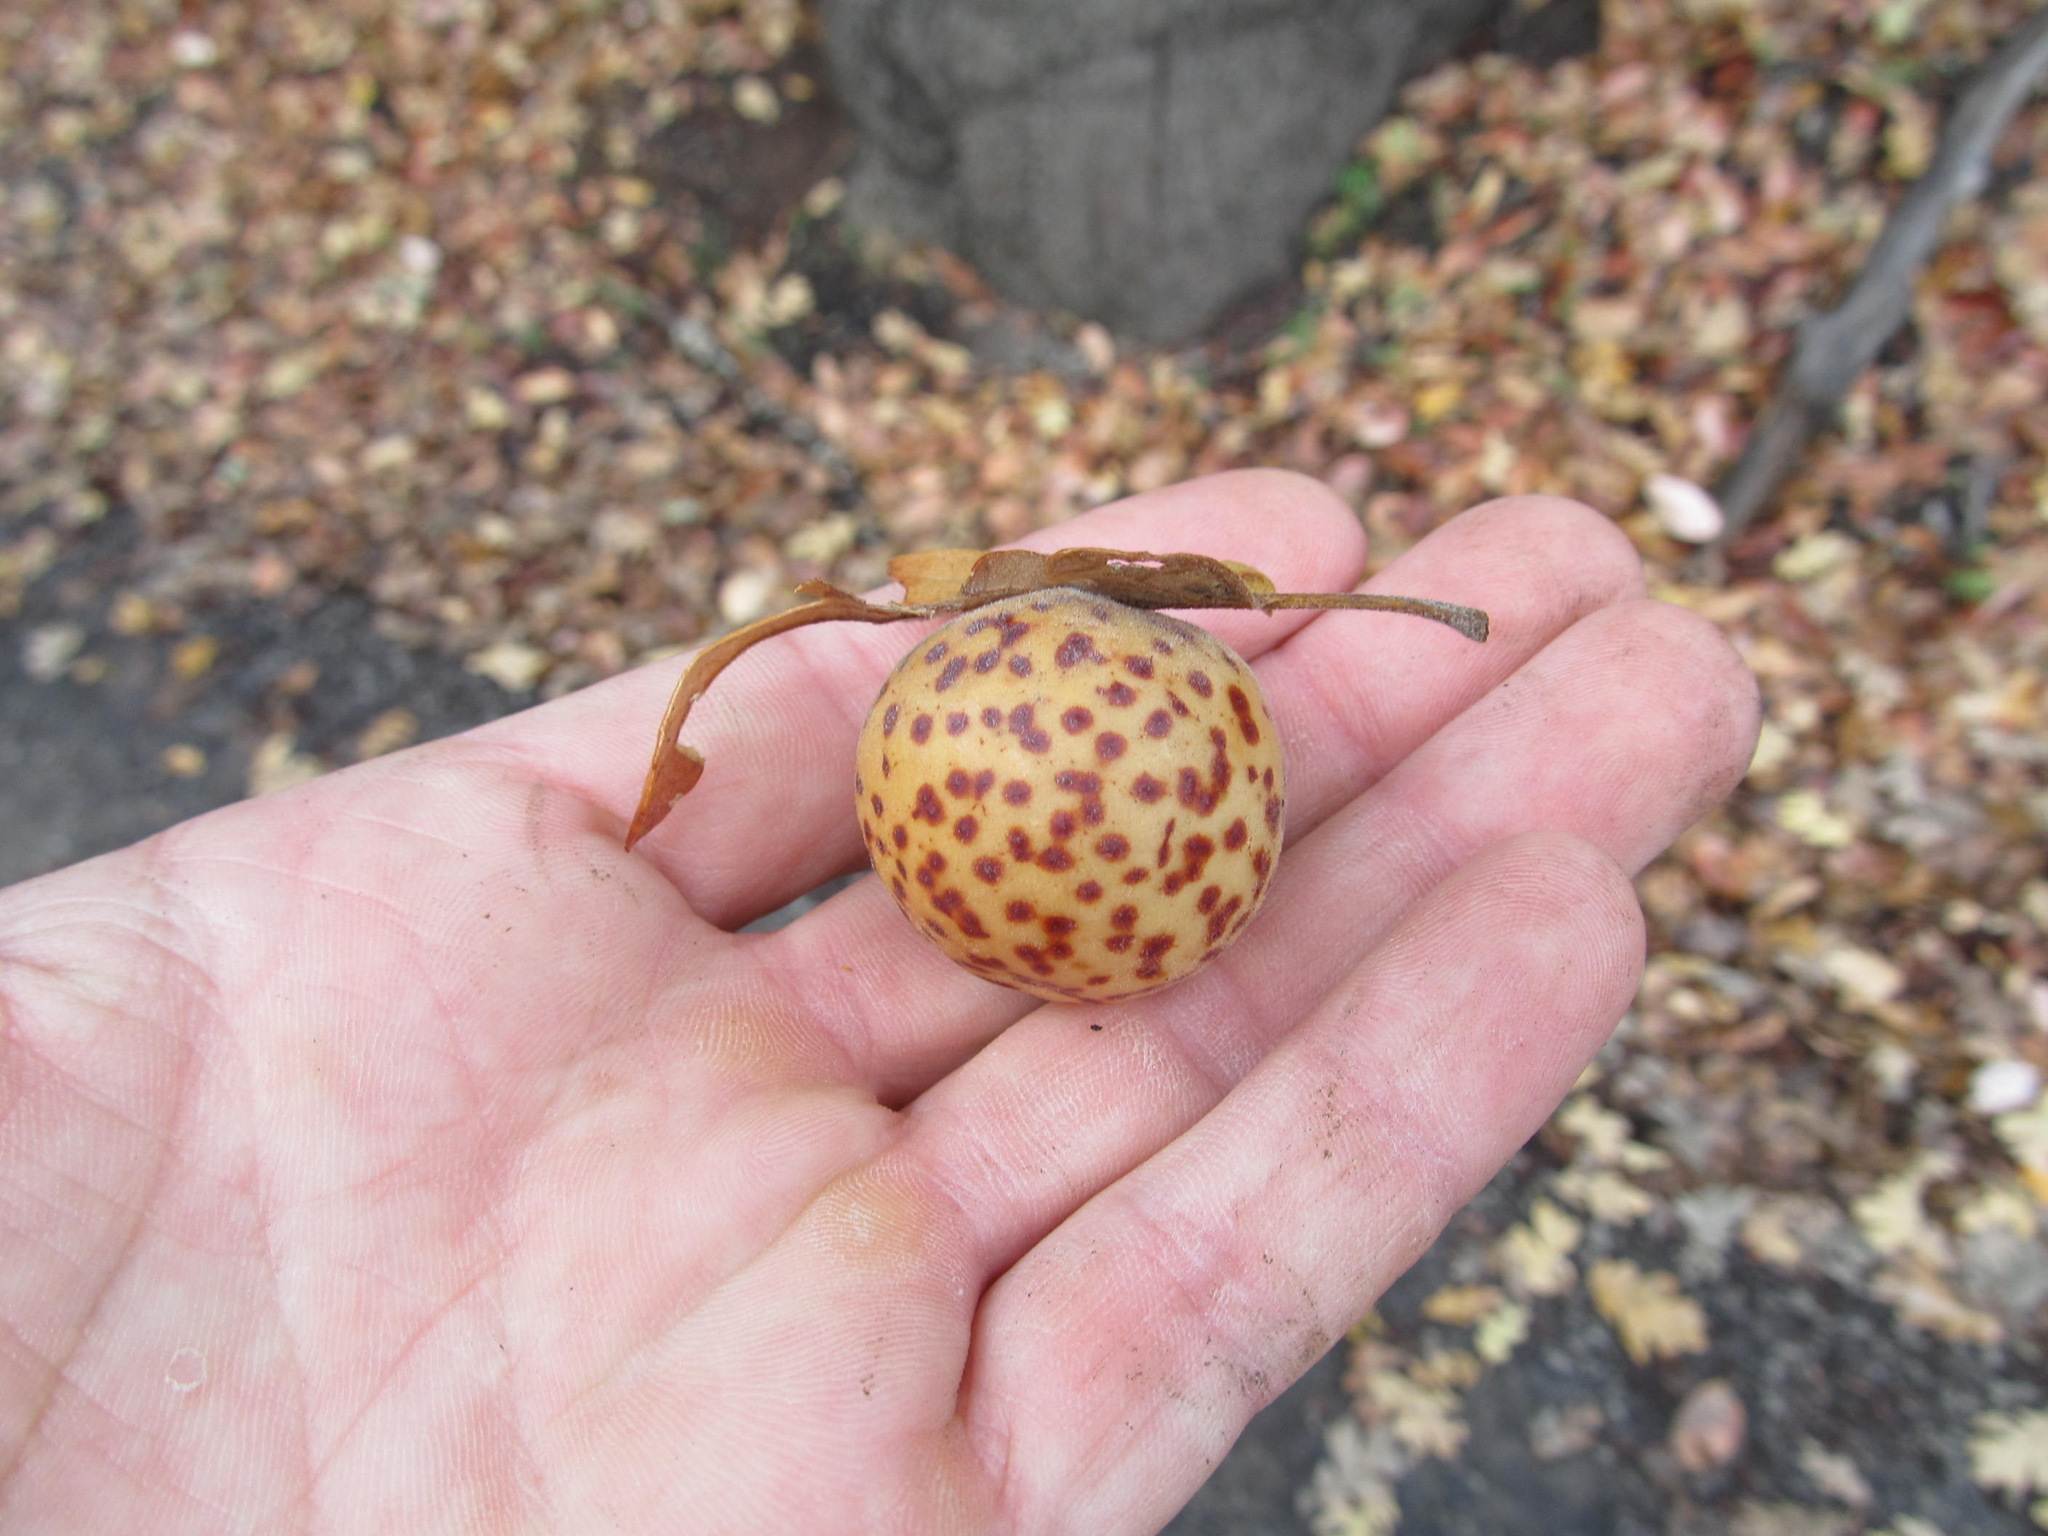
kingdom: Animalia
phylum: Arthropoda
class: Insecta
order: Hymenoptera
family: Cynipidae
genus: Cynips
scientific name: Cynips
